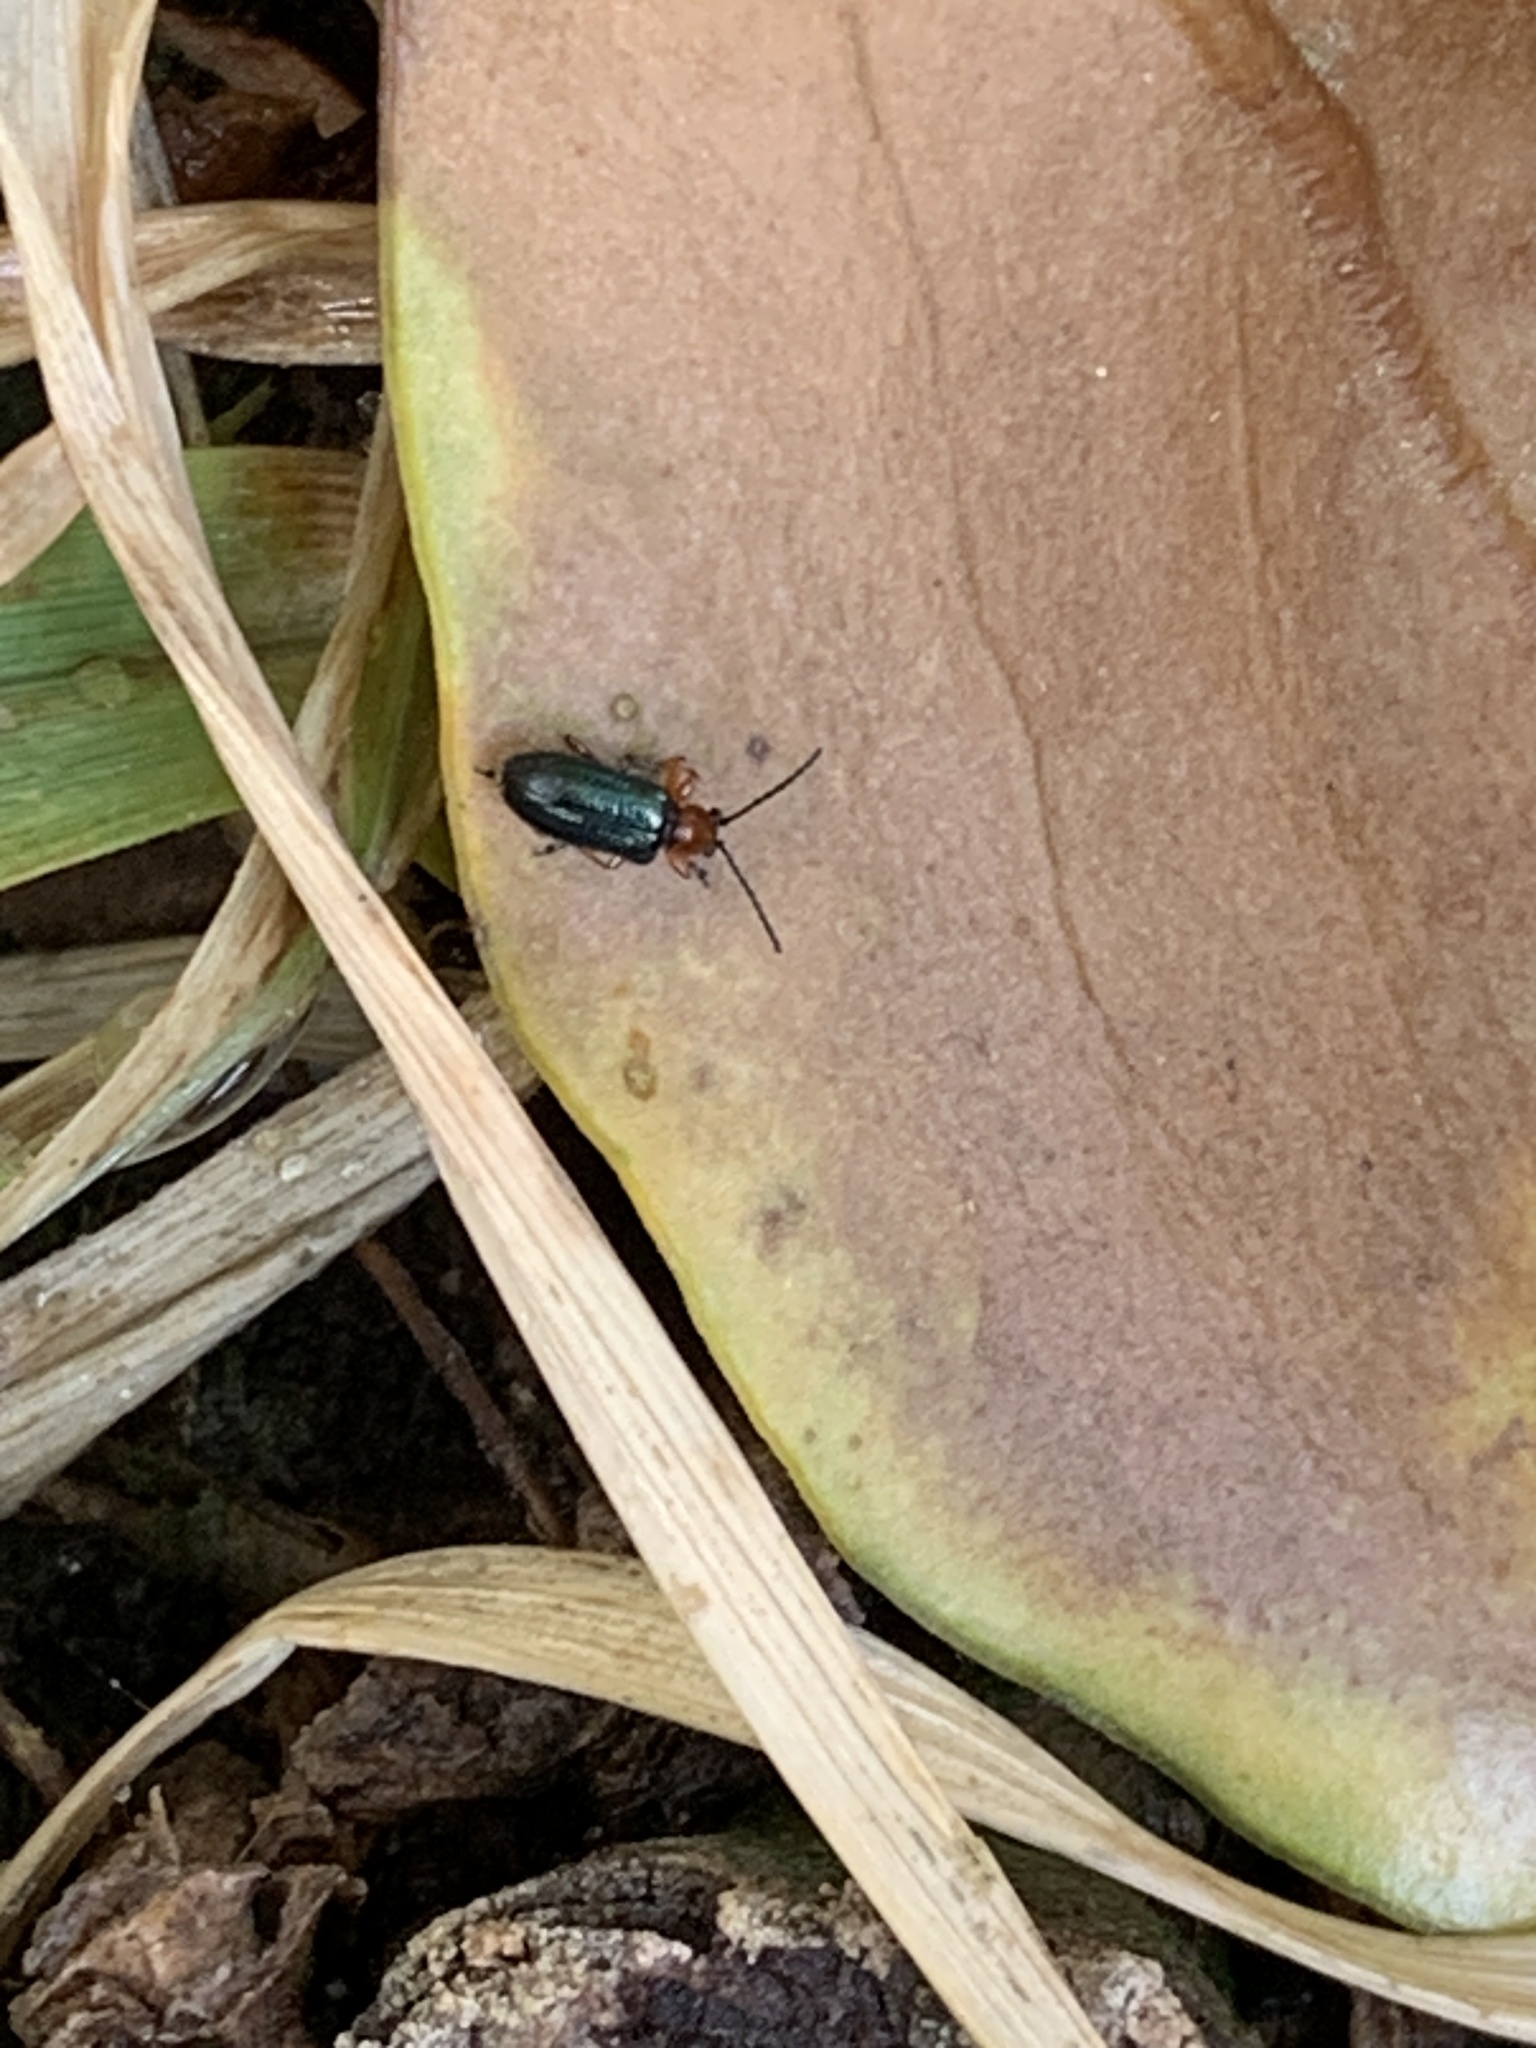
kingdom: Animalia
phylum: Arthropoda
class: Insecta
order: Coleoptera
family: Chrysomelidae
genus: Oulema
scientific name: Oulema
